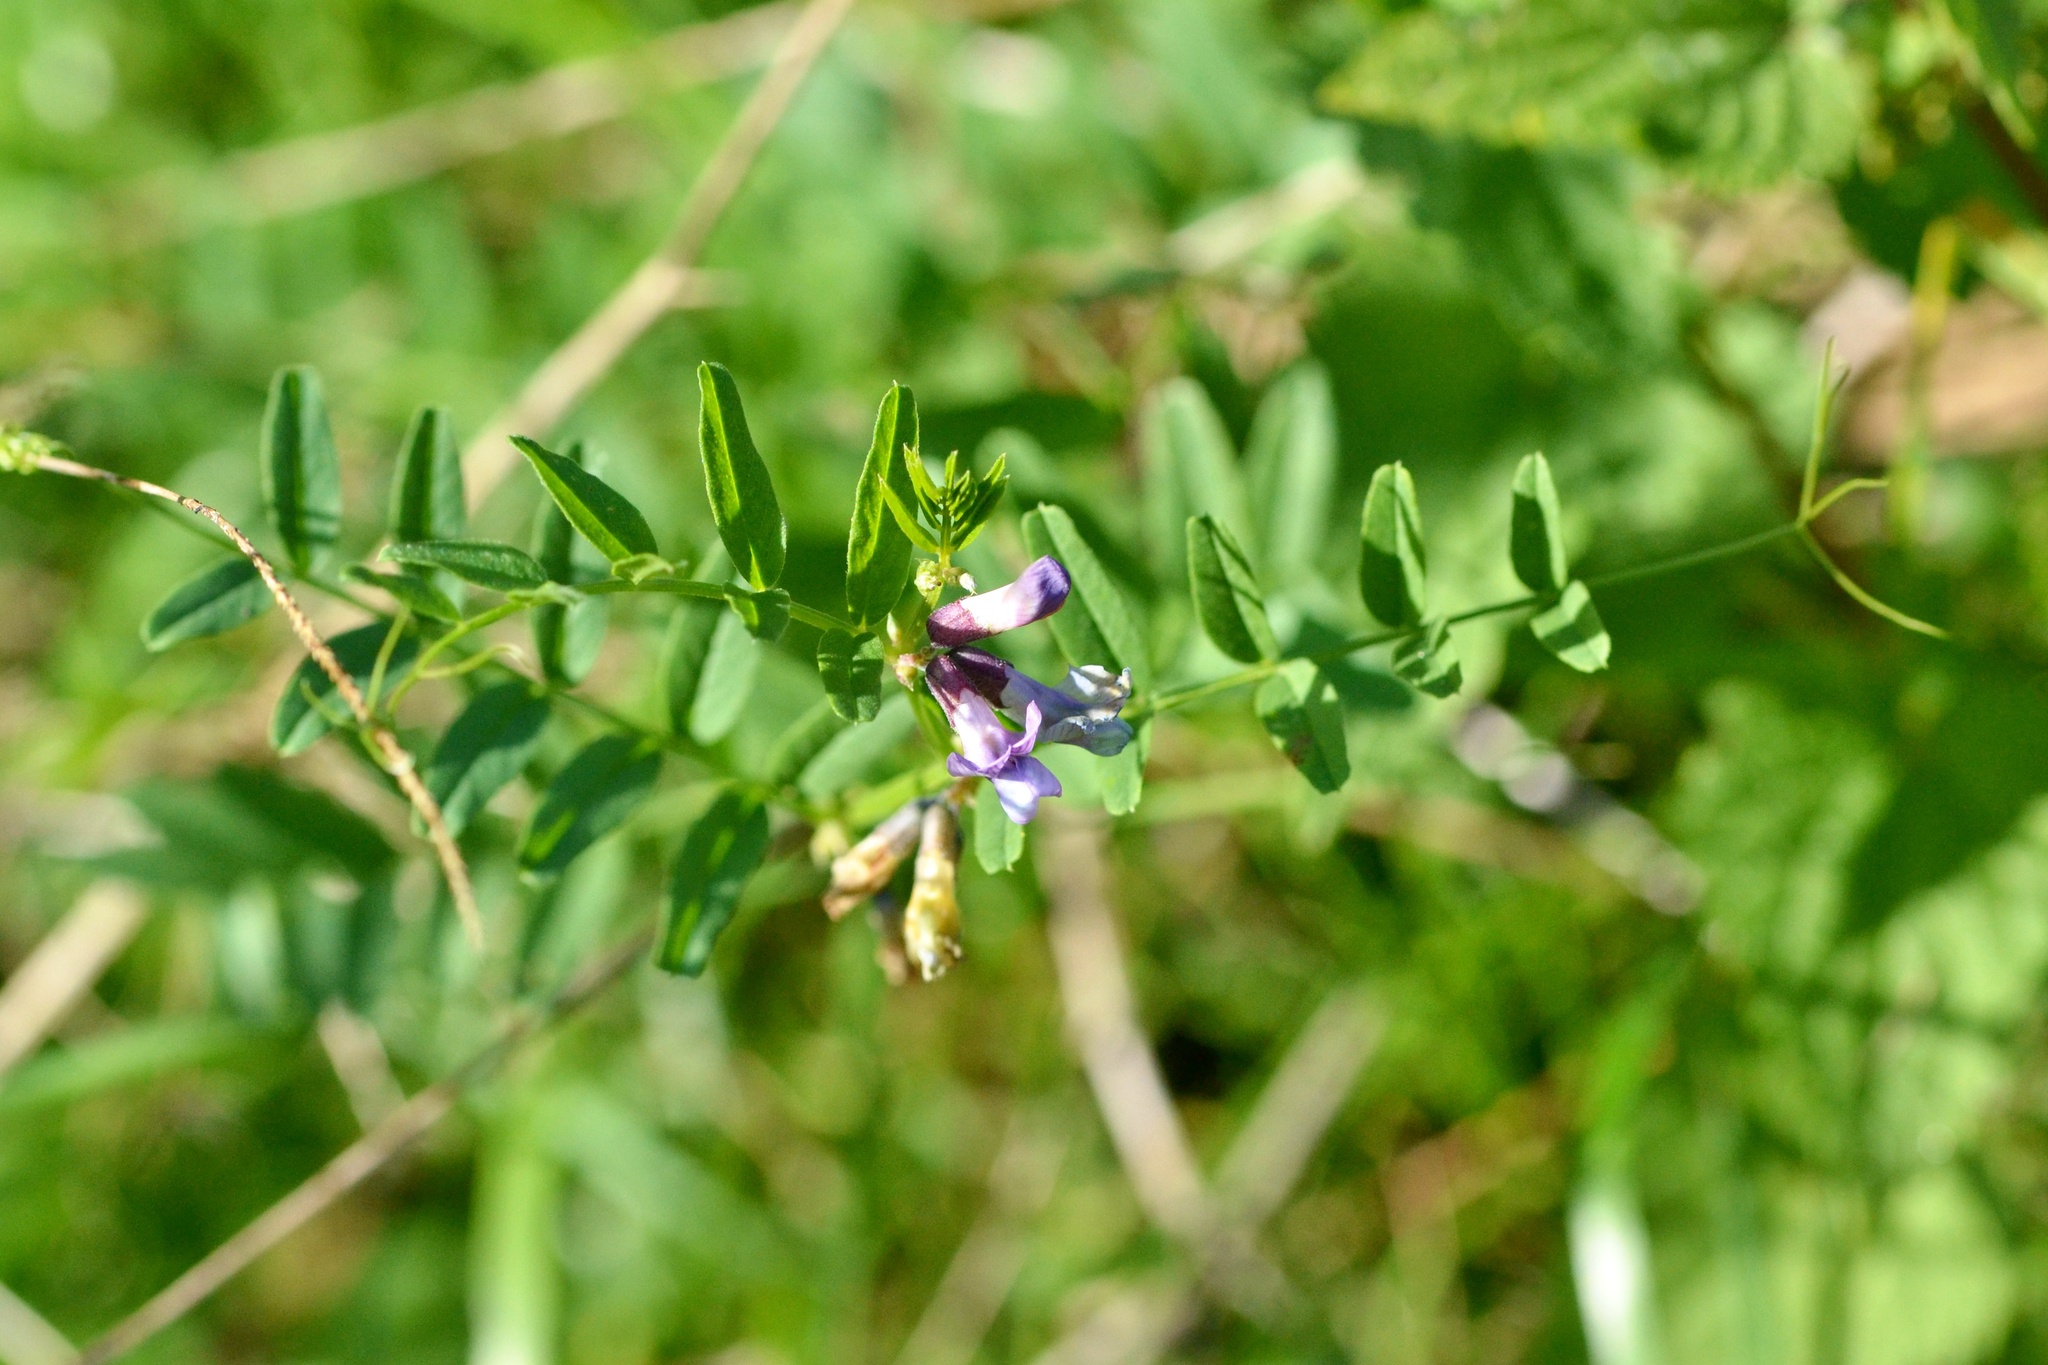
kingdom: Plantae
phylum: Tracheophyta
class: Magnoliopsida
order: Fabales
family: Fabaceae
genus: Vicia
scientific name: Vicia sepium
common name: Bush vetch
